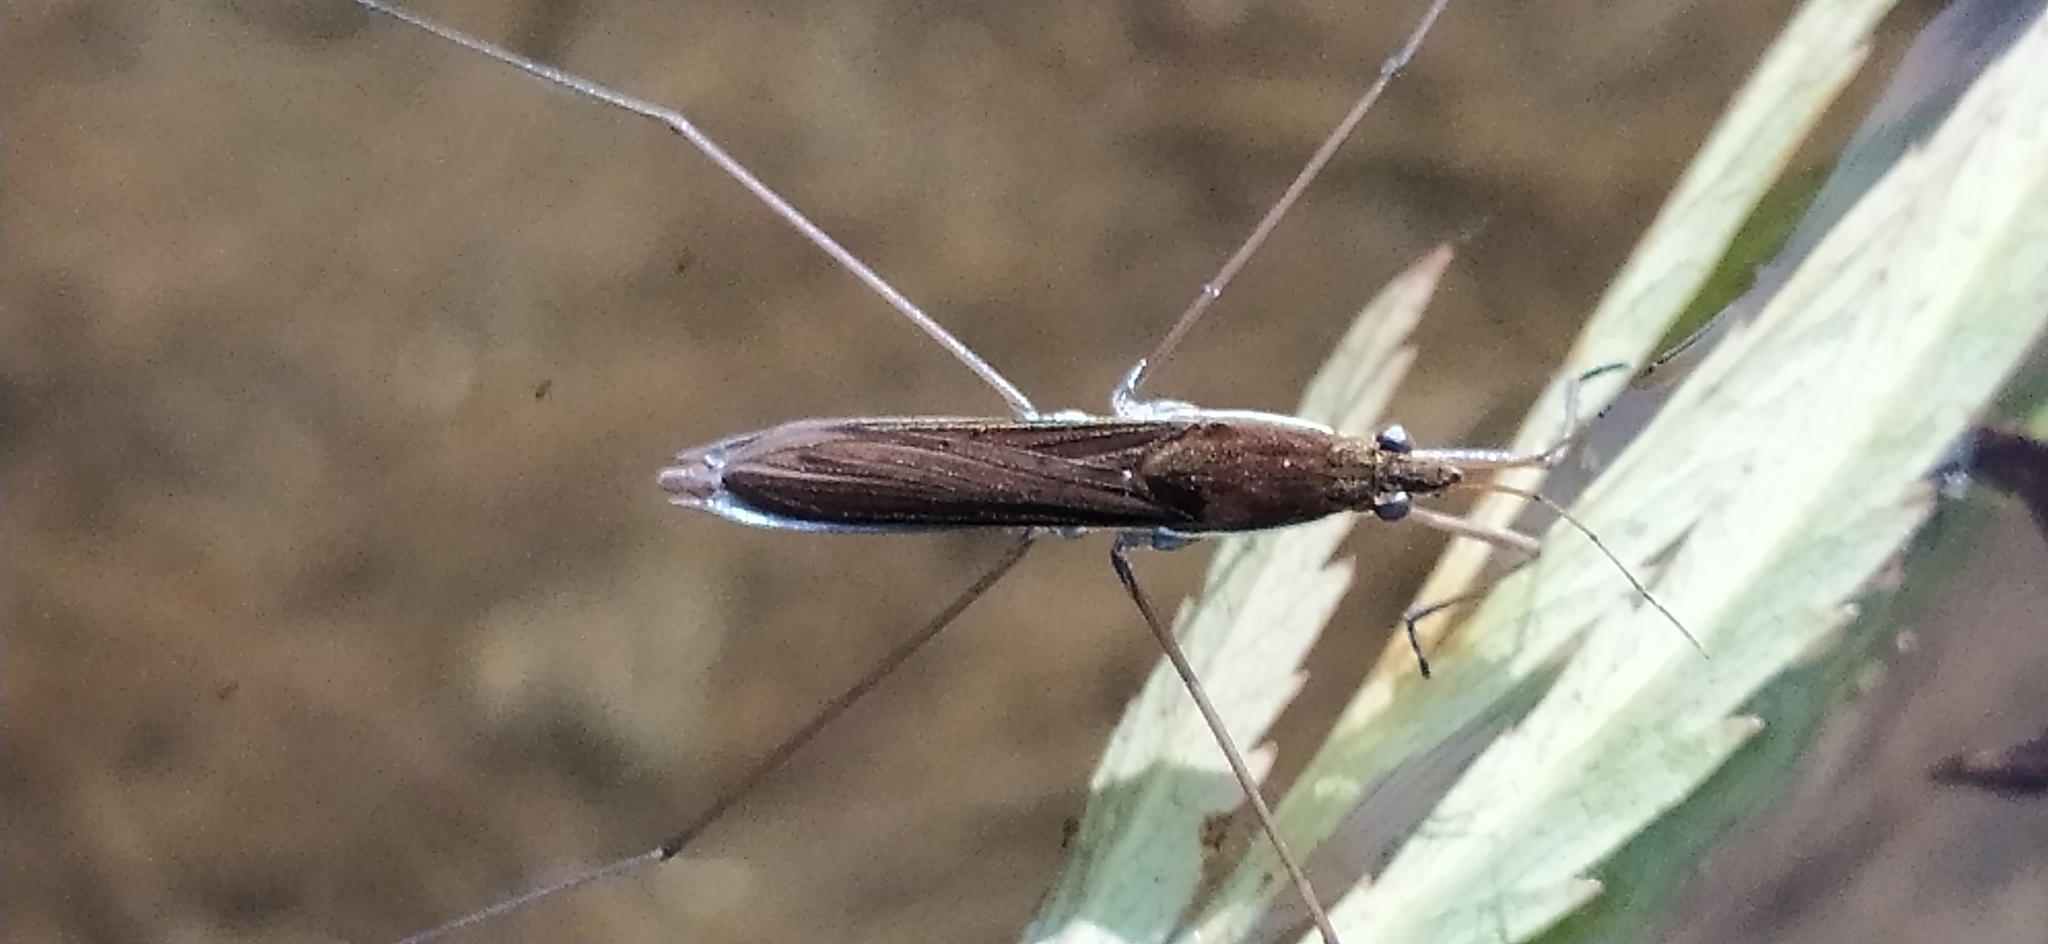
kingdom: Animalia
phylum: Arthropoda
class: Insecta
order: Hemiptera
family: Gerridae
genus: Limnoporus
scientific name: Limnoporus rufoscutellatus
